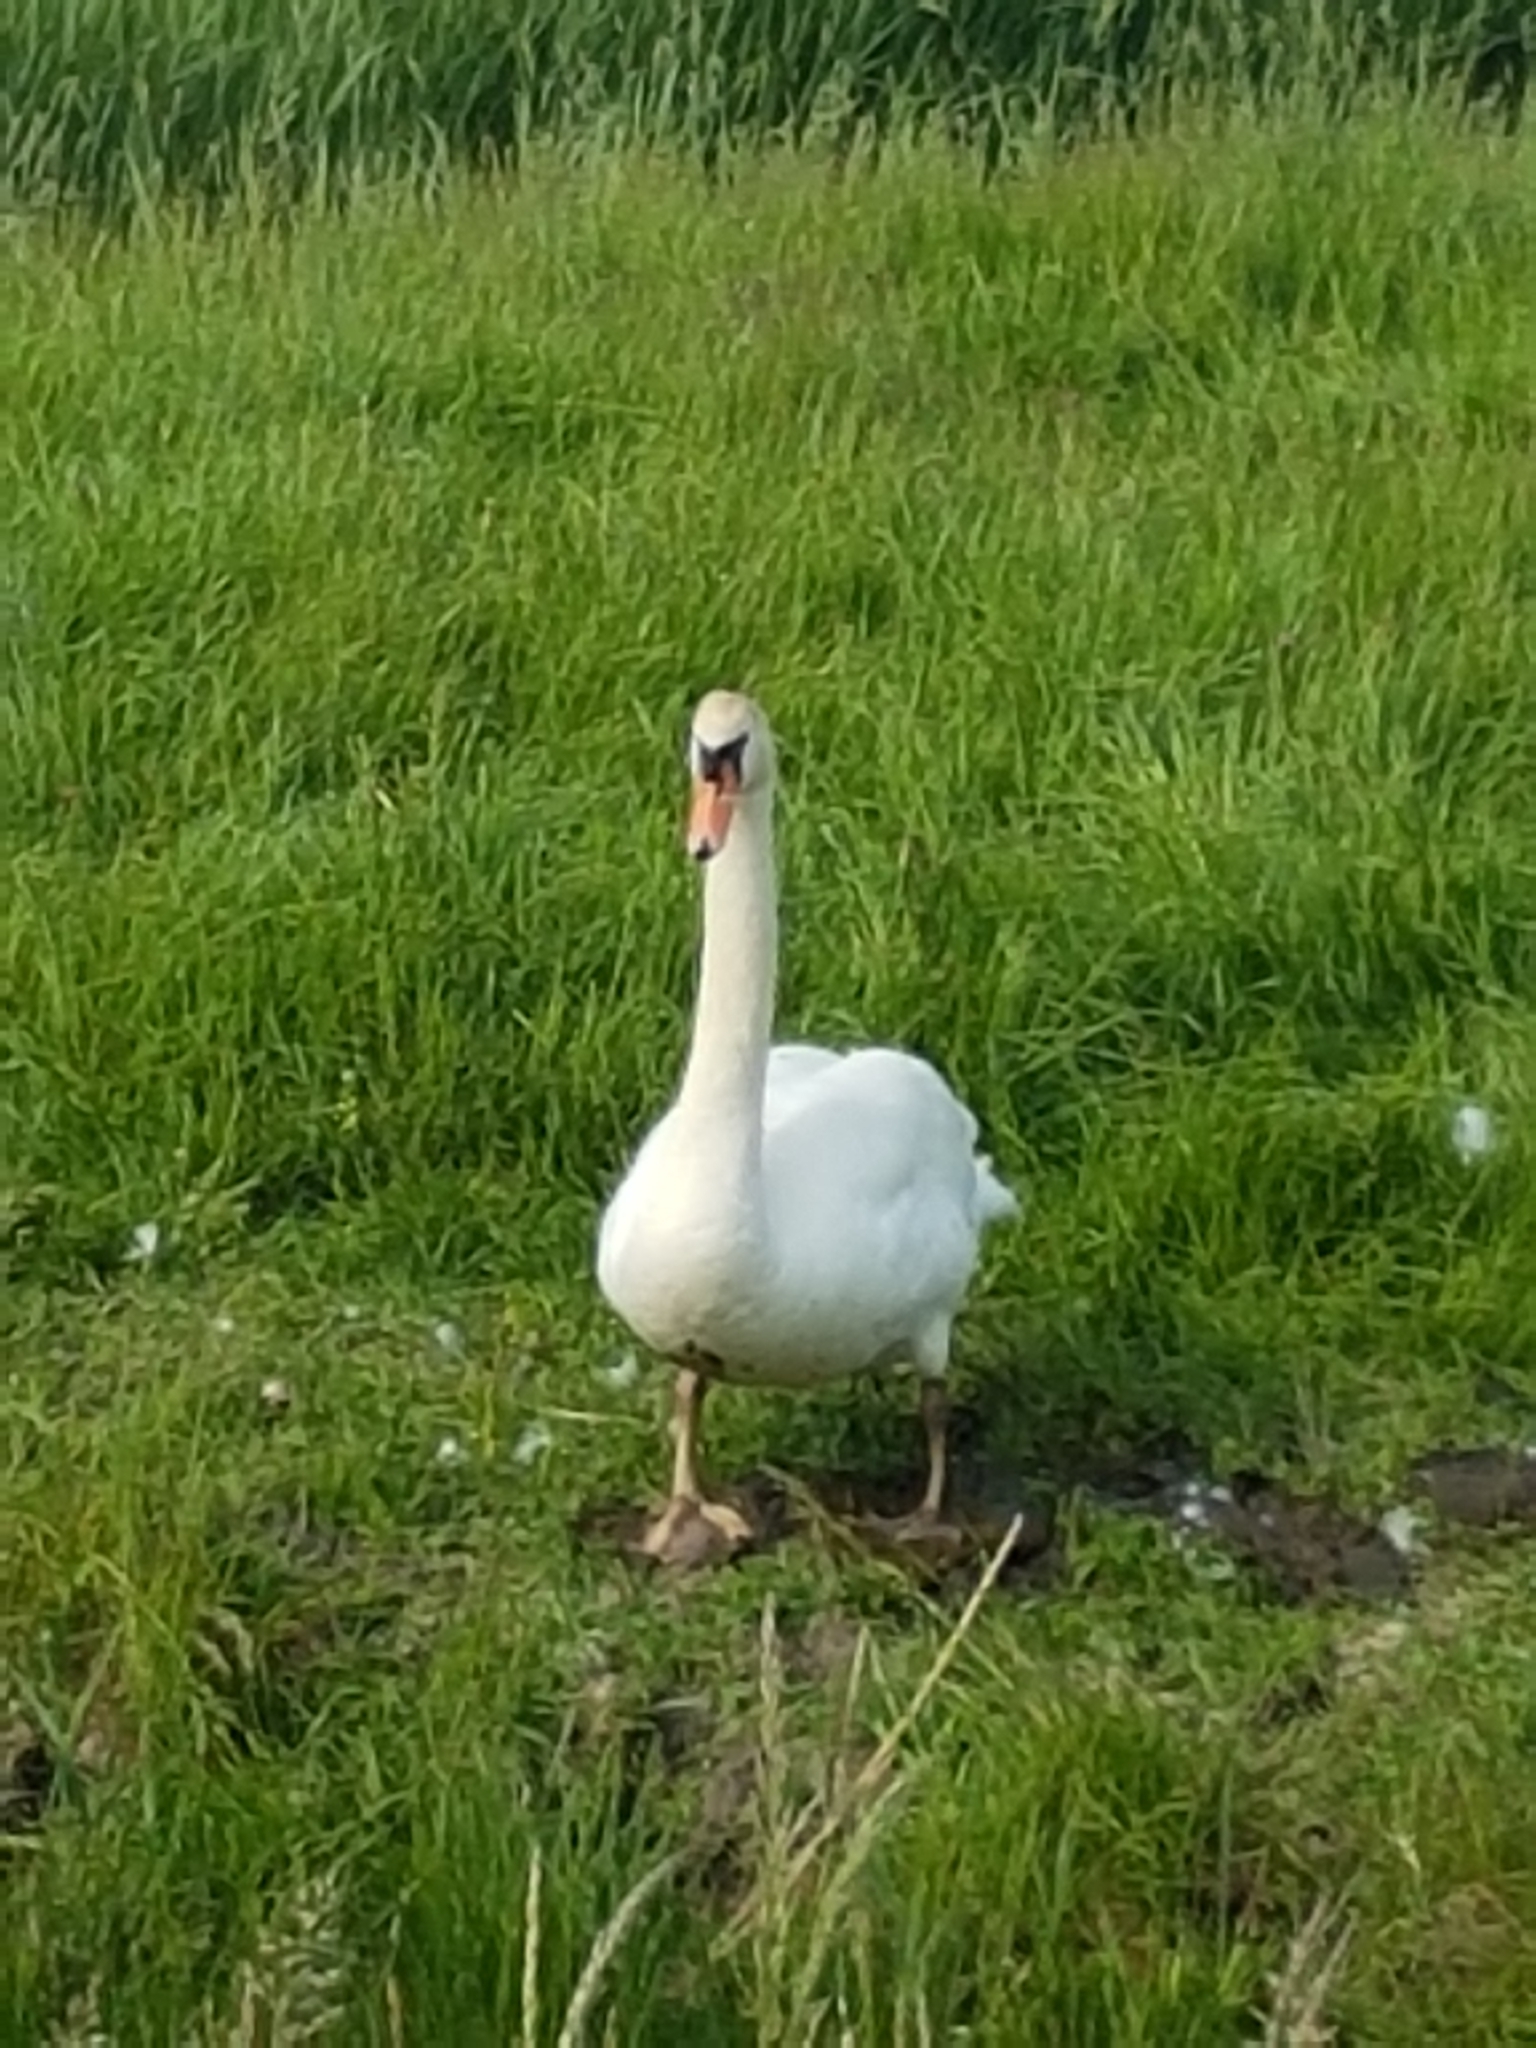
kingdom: Animalia
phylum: Chordata
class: Aves
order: Anseriformes
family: Anatidae
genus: Cygnus
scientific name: Cygnus olor
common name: Mute swan
